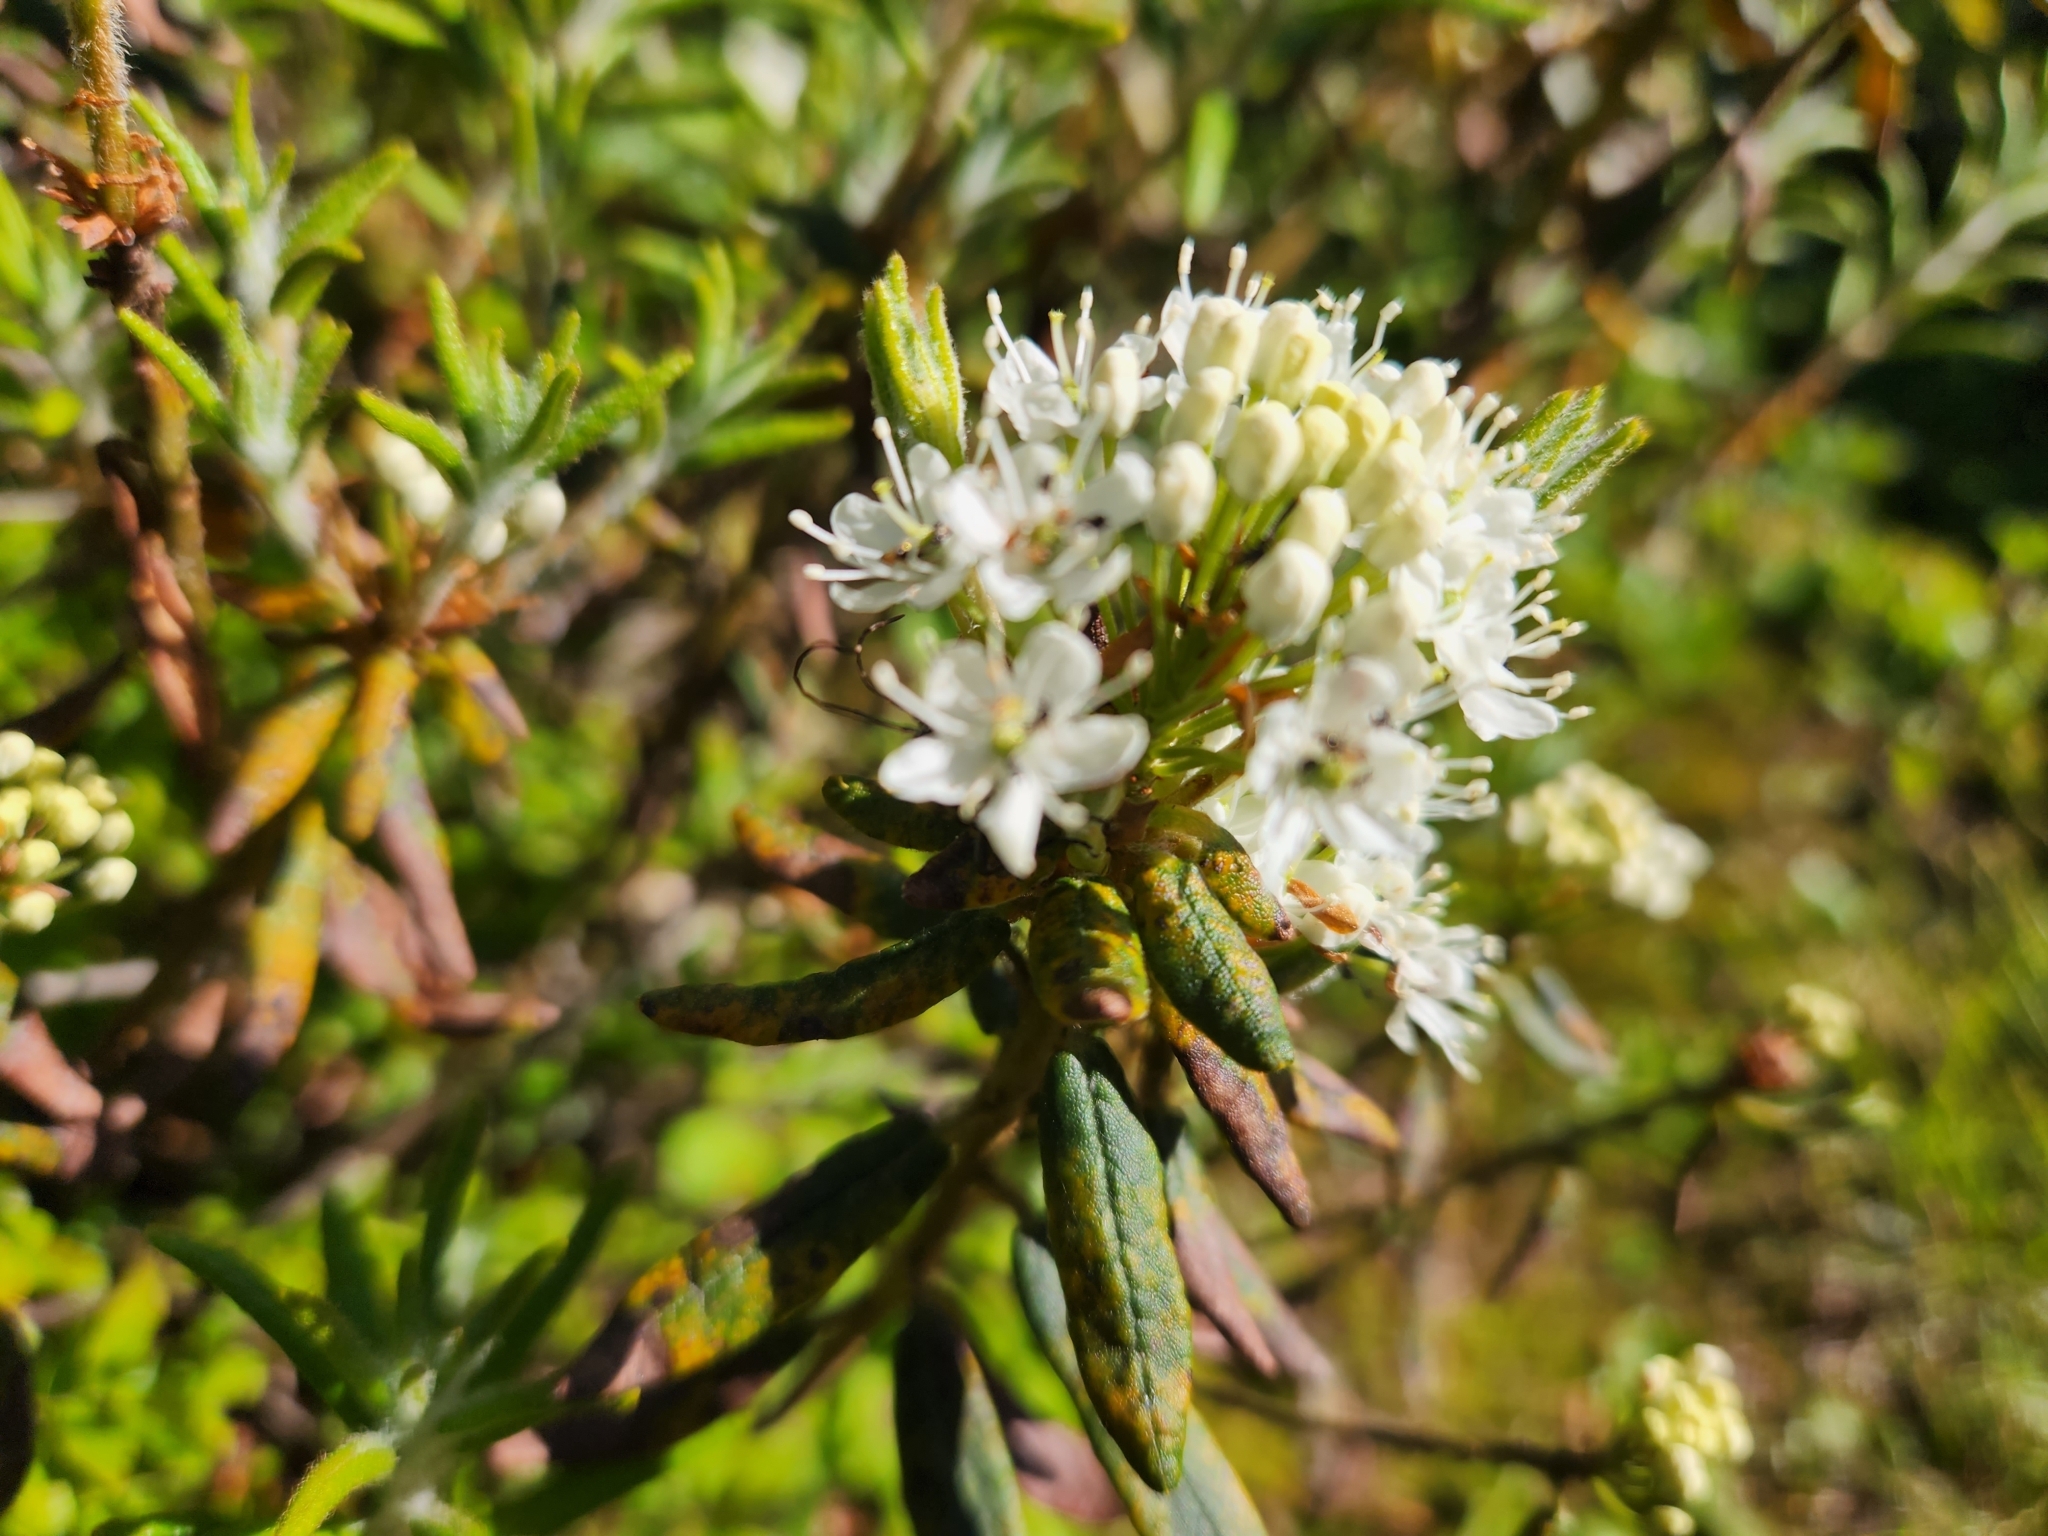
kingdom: Plantae
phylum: Tracheophyta
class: Magnoliopsida
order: Ericales
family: Ericaceae
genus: Rhododendron
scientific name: Rhododendron groenlandicum
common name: Bog labrador tea
